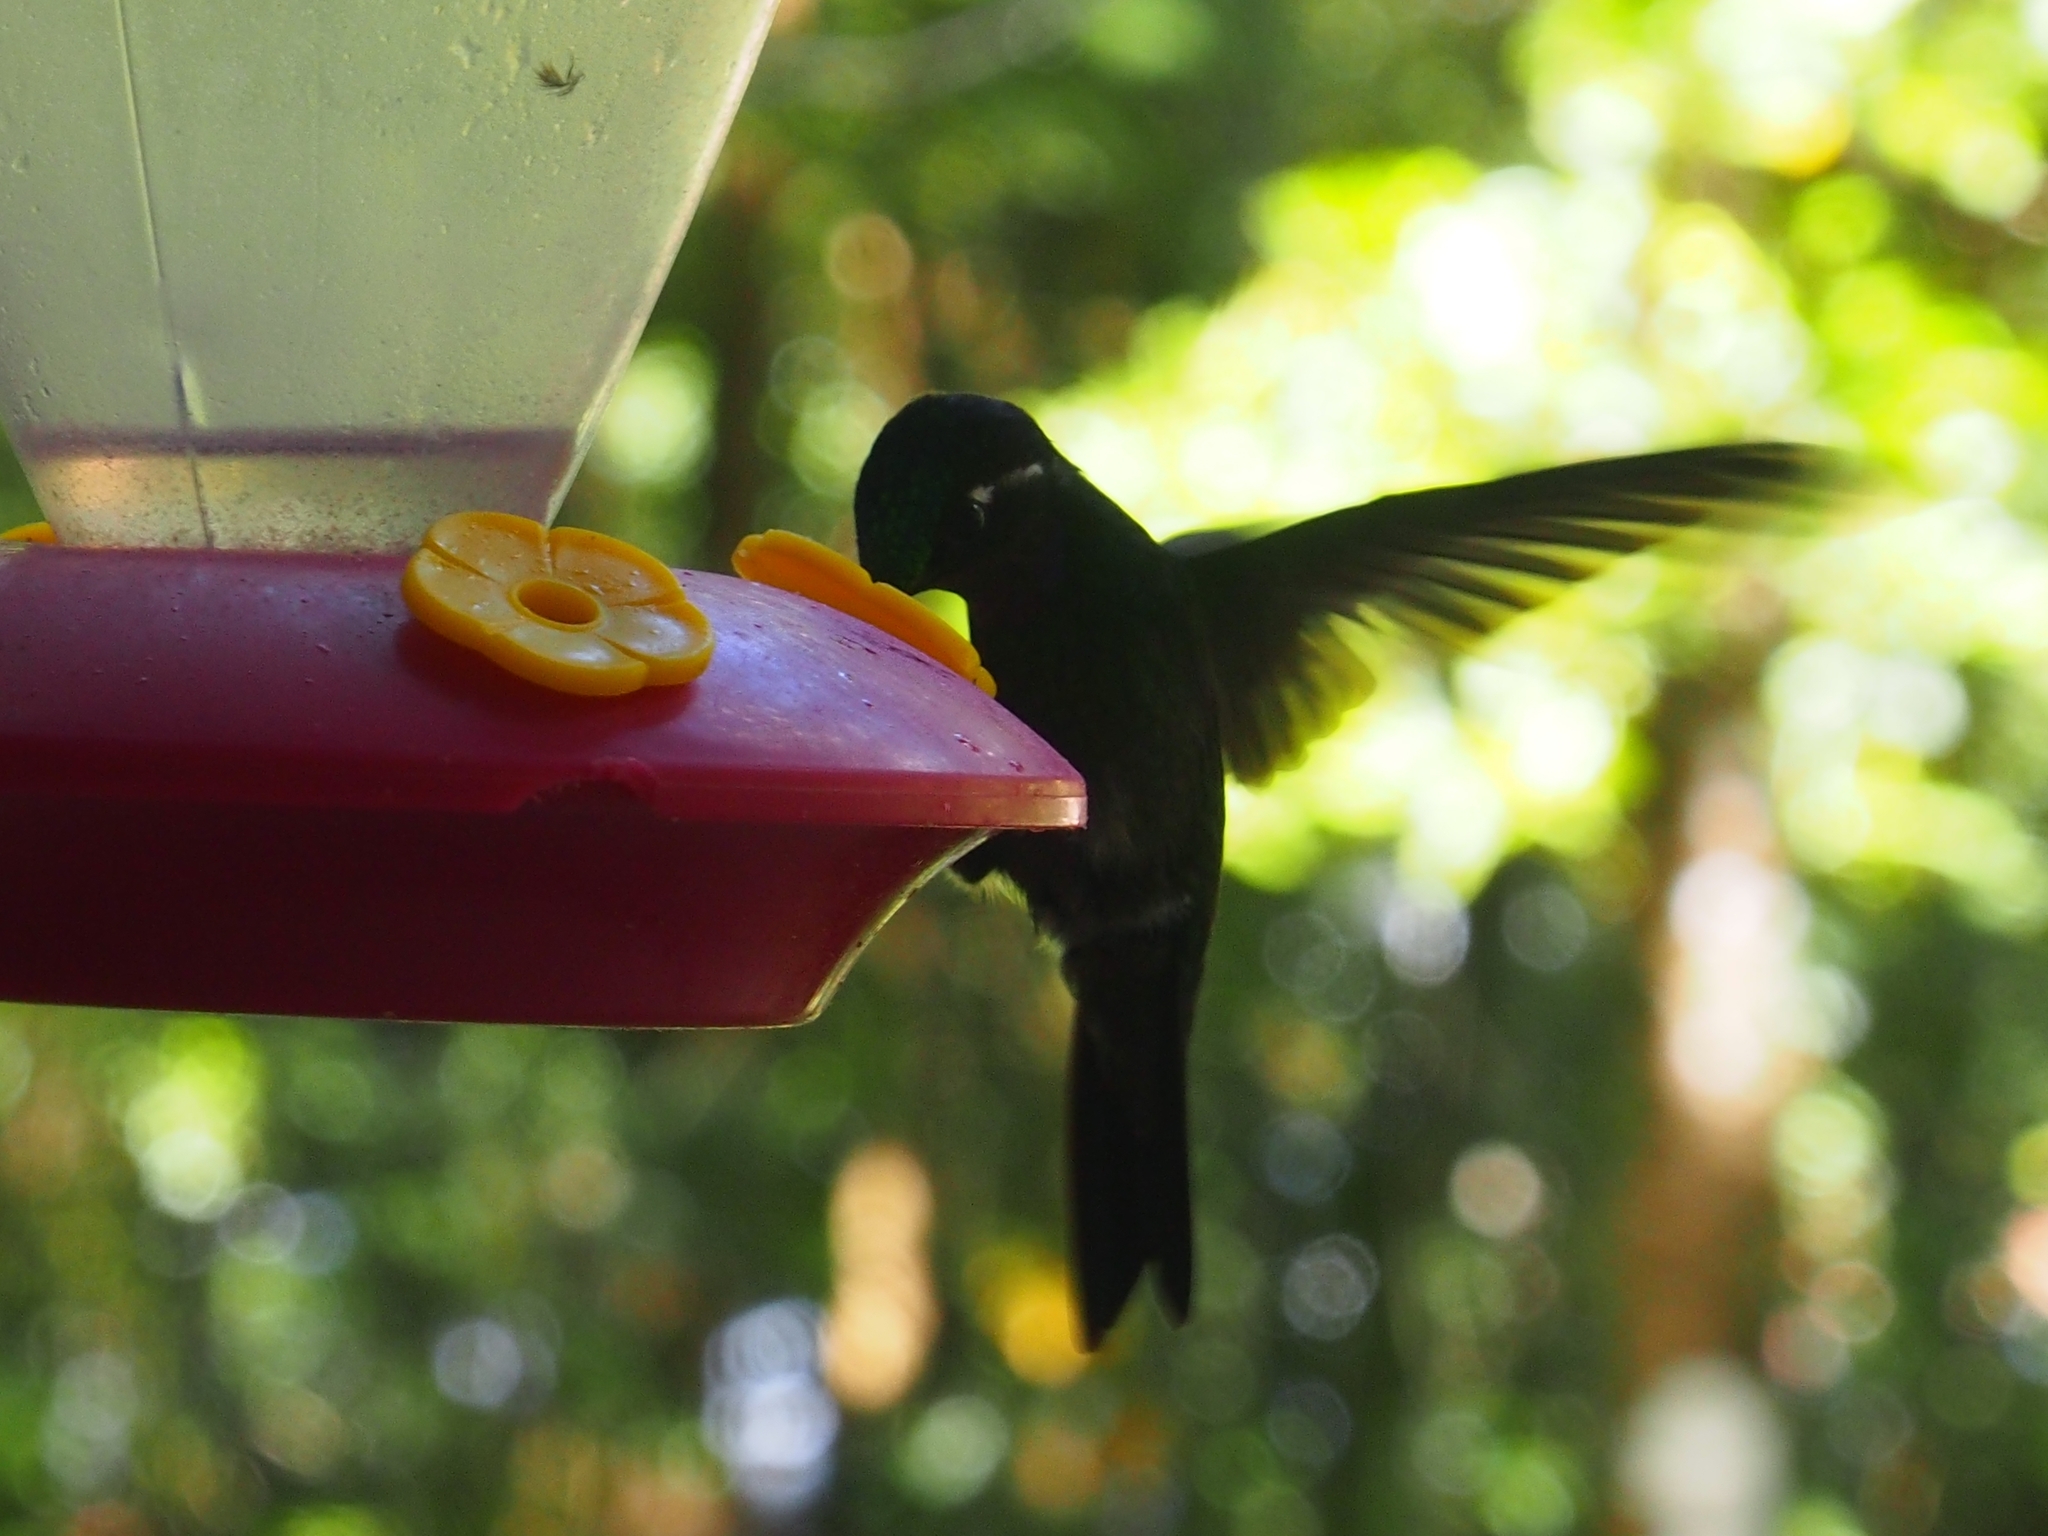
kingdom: Animalia
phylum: Chordata
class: Aves
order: Apodiformes
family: Trochilidae
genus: Lampornis
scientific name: Lampornis calolaemus
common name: Purple-throated mountain-gem
